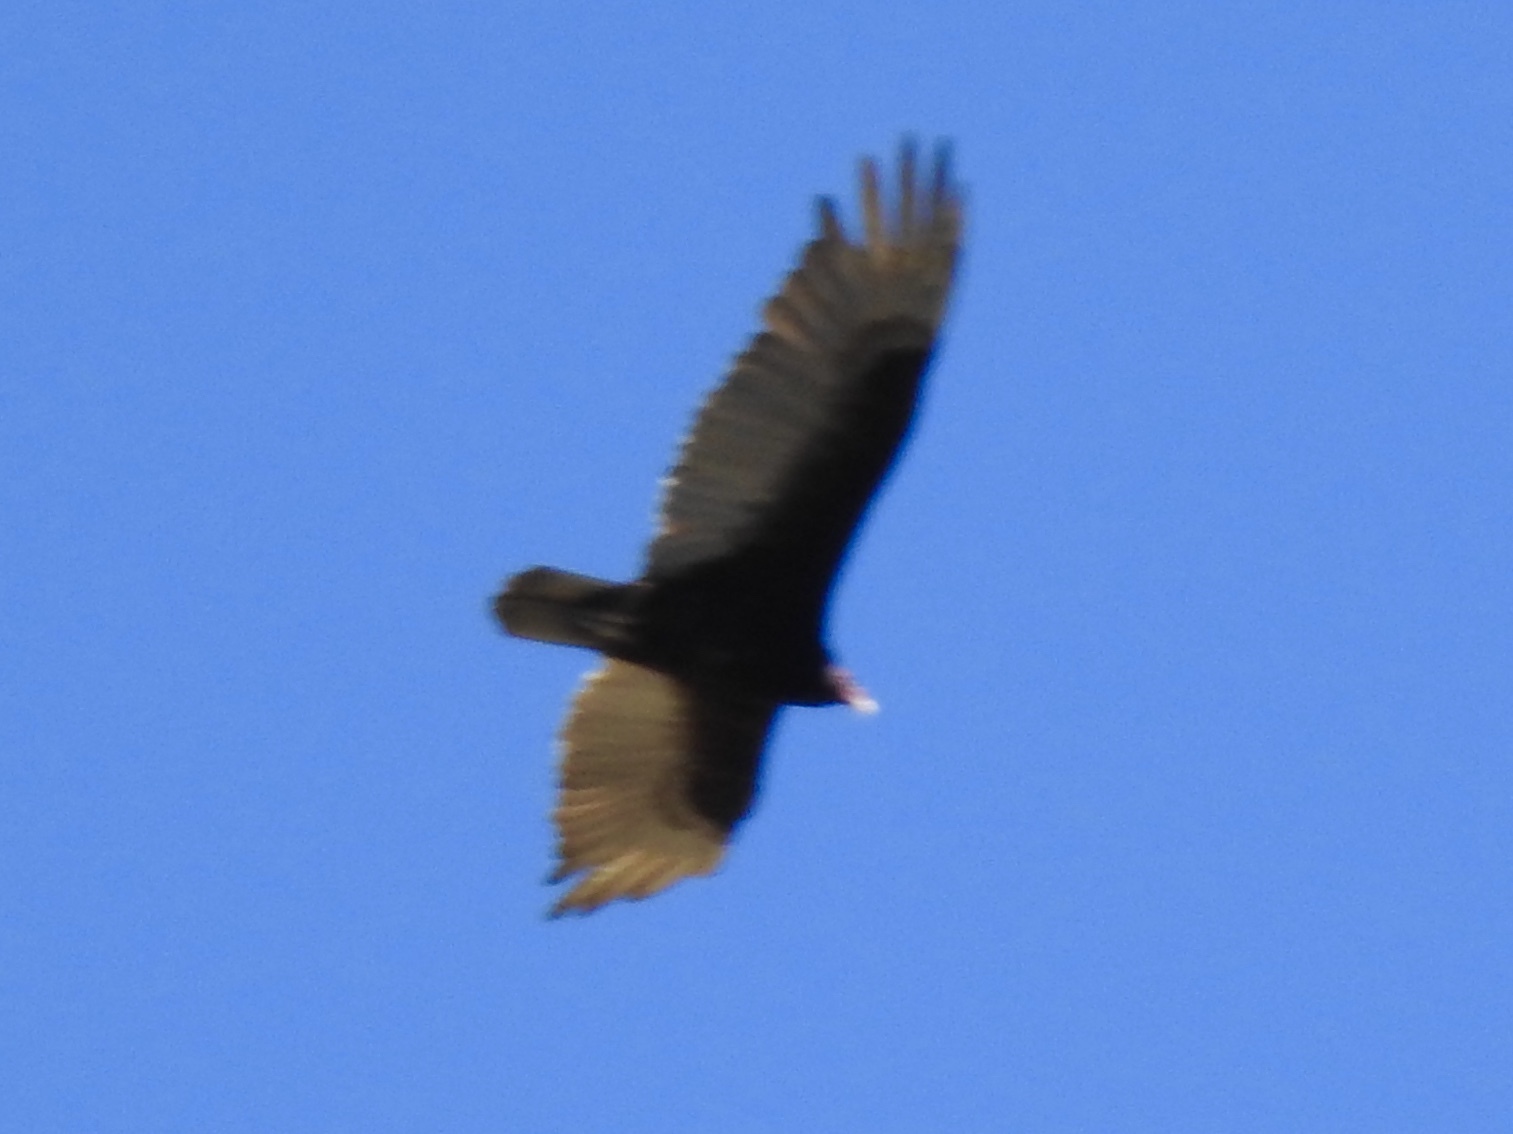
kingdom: Animalia
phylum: Chordata
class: Aves
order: Accipitriformes
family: Cathartidae
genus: Cathartes
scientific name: Cathartes aura
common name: Turkey vulture
